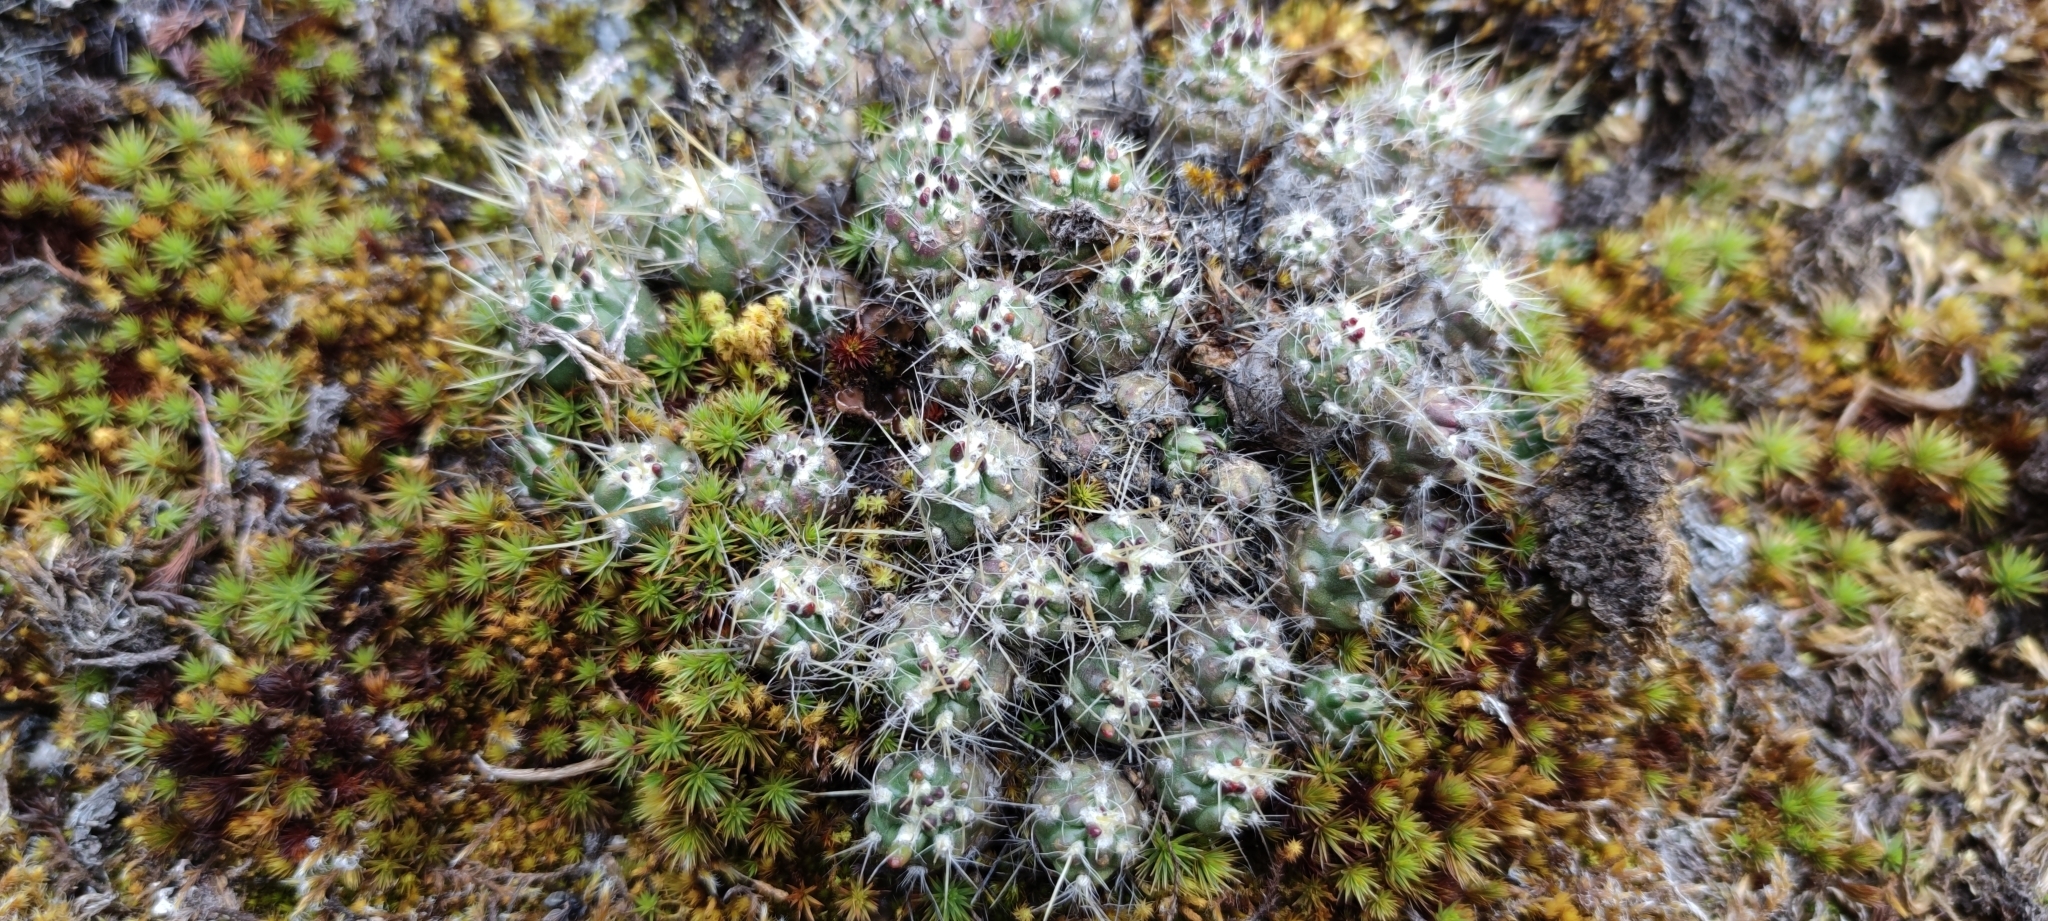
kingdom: Plantae
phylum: Tracheophyta
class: Magnoliopsida
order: Caryophyllales
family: Cactaceae
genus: Austrocylindropuntia
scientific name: Austrocylindropuntia floccosa
